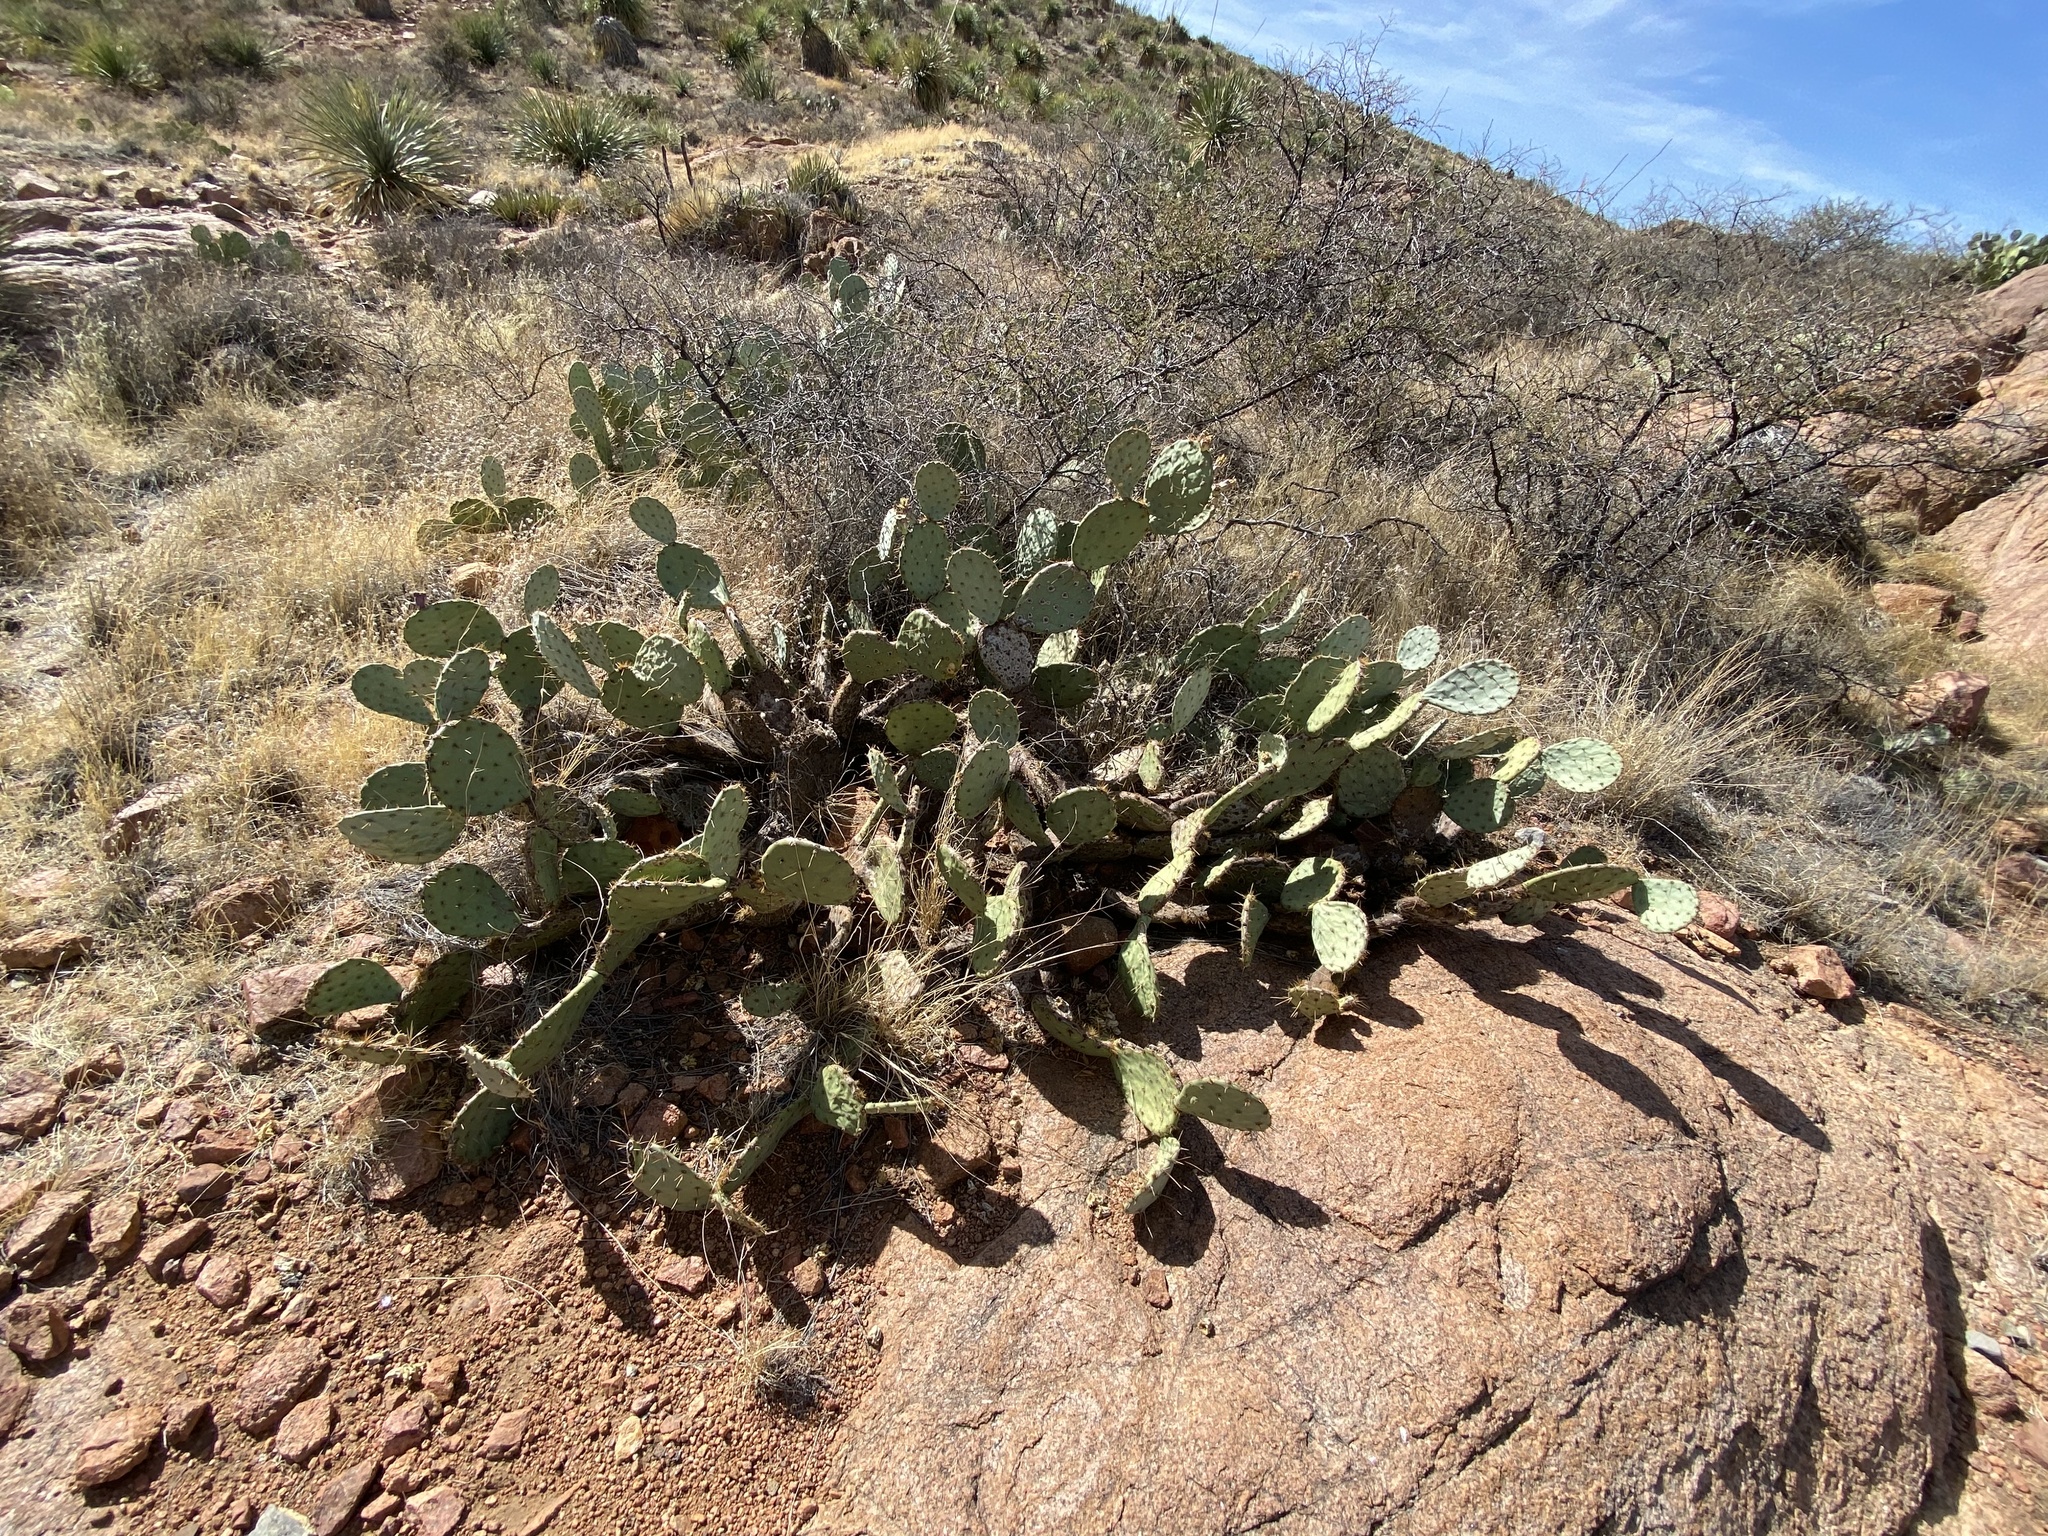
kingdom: Plantae
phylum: Tracheophyta
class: Magnoliopsida
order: Caryophyllales
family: Cactaceae
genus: Opuntia
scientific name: Opuntia engelmannii
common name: Cactus-apple
